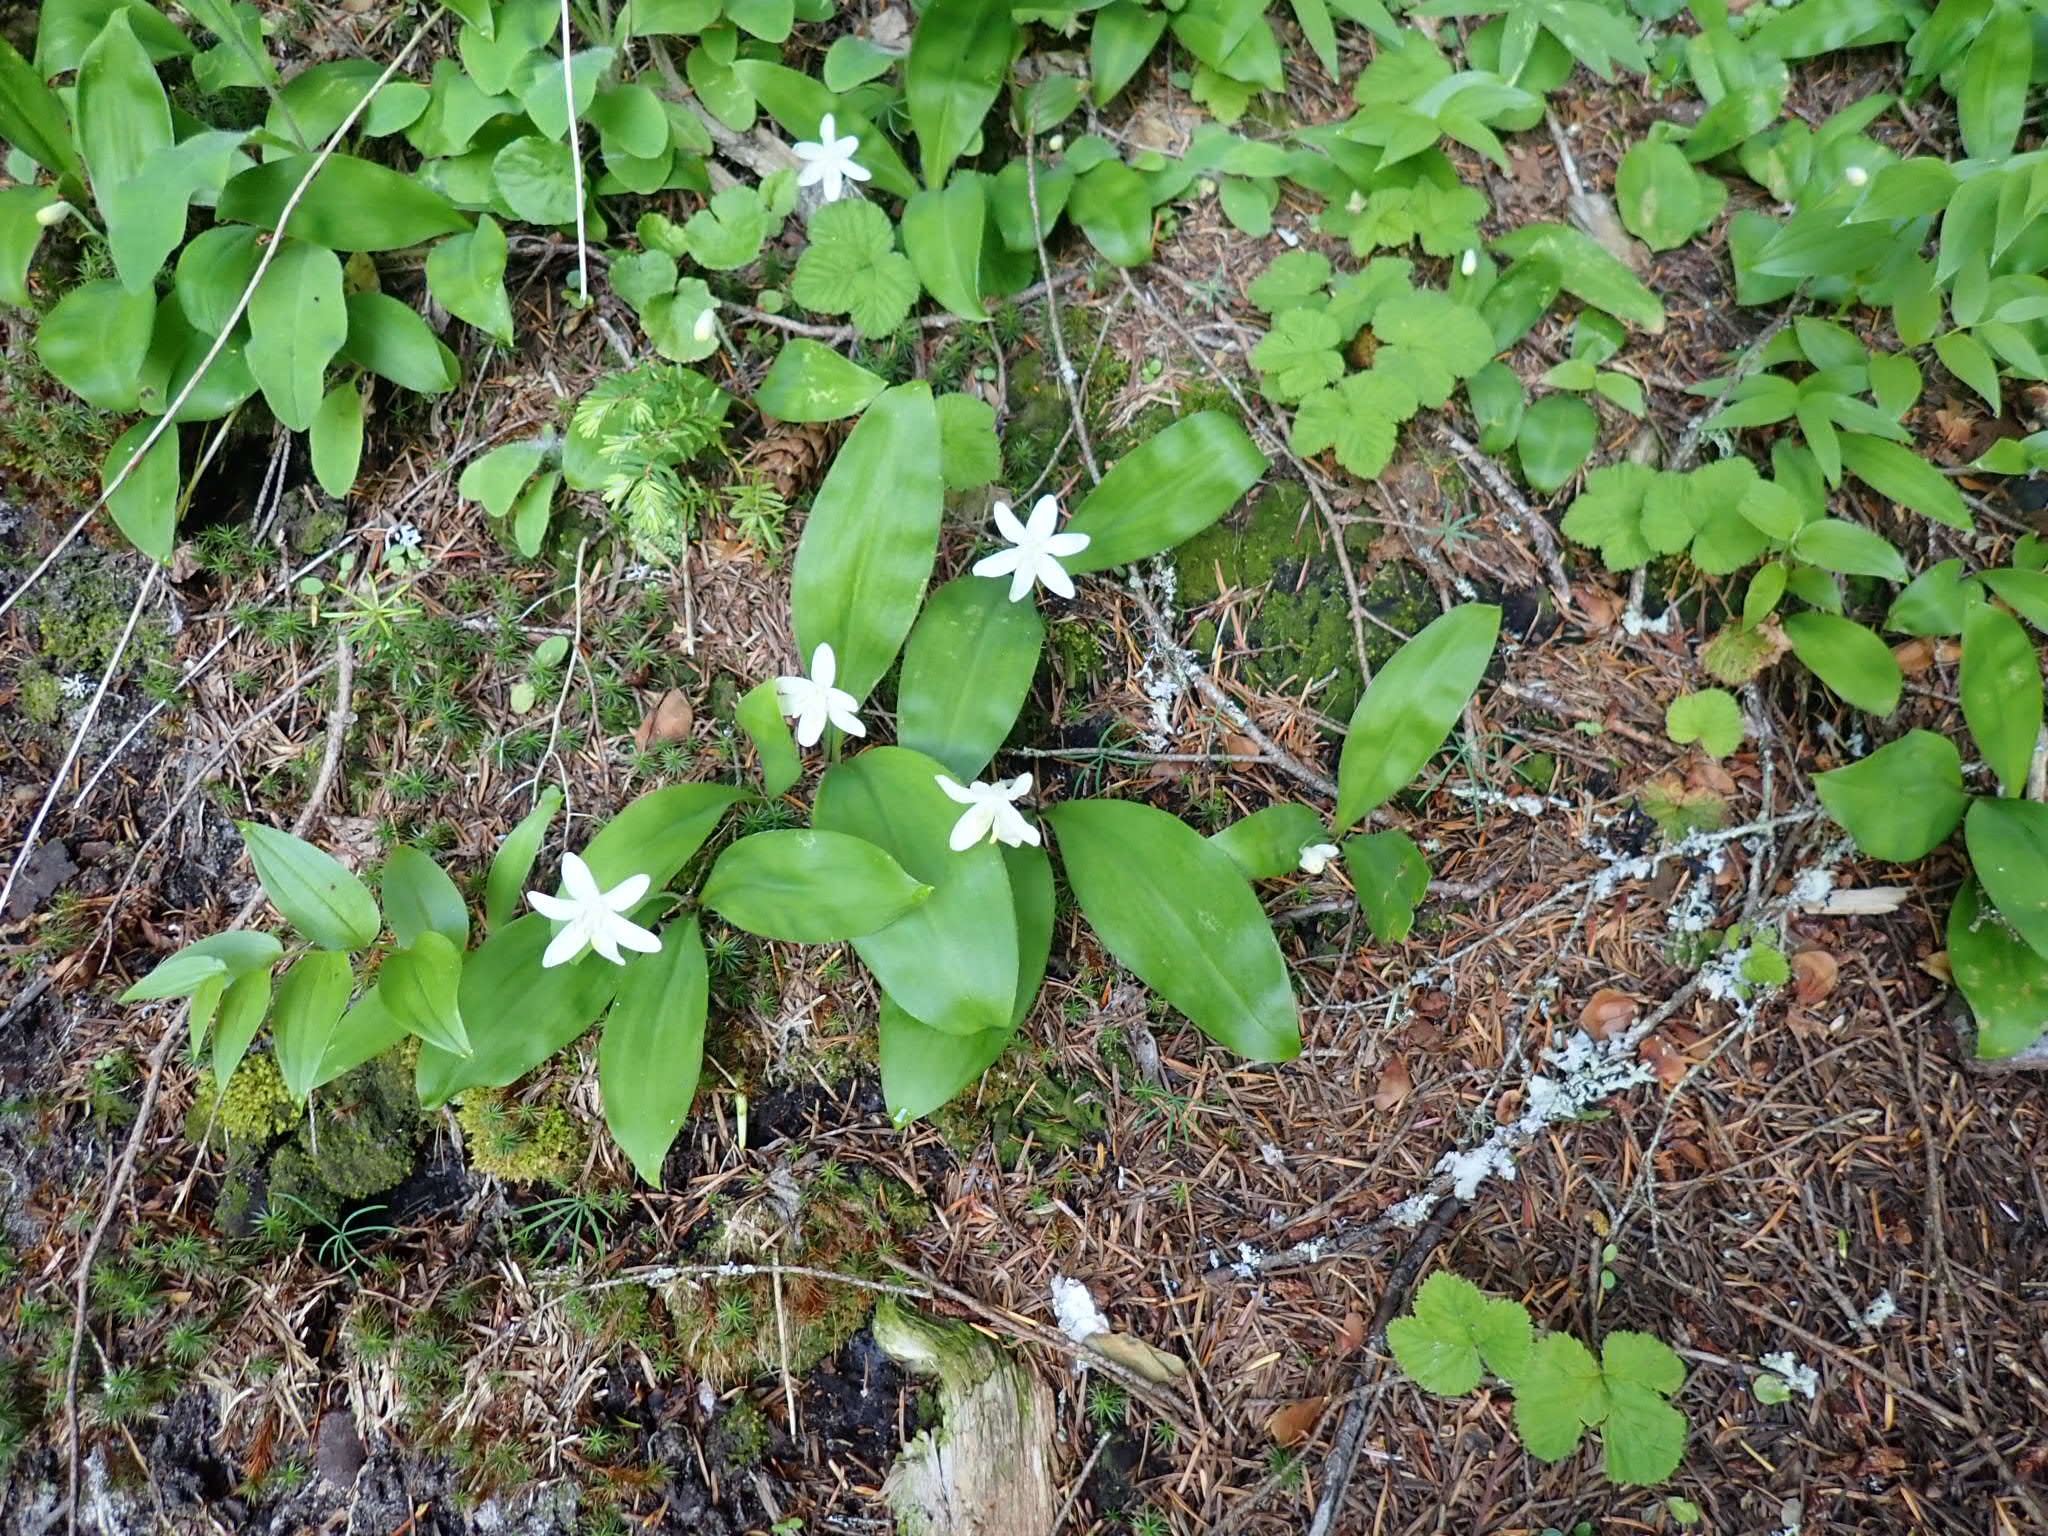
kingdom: Plantae
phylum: Tracheophyta
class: Liliopsida
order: Liliales
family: Liliaceae
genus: Clintonia
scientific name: Clintonia uniflora
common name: Queen's cup
